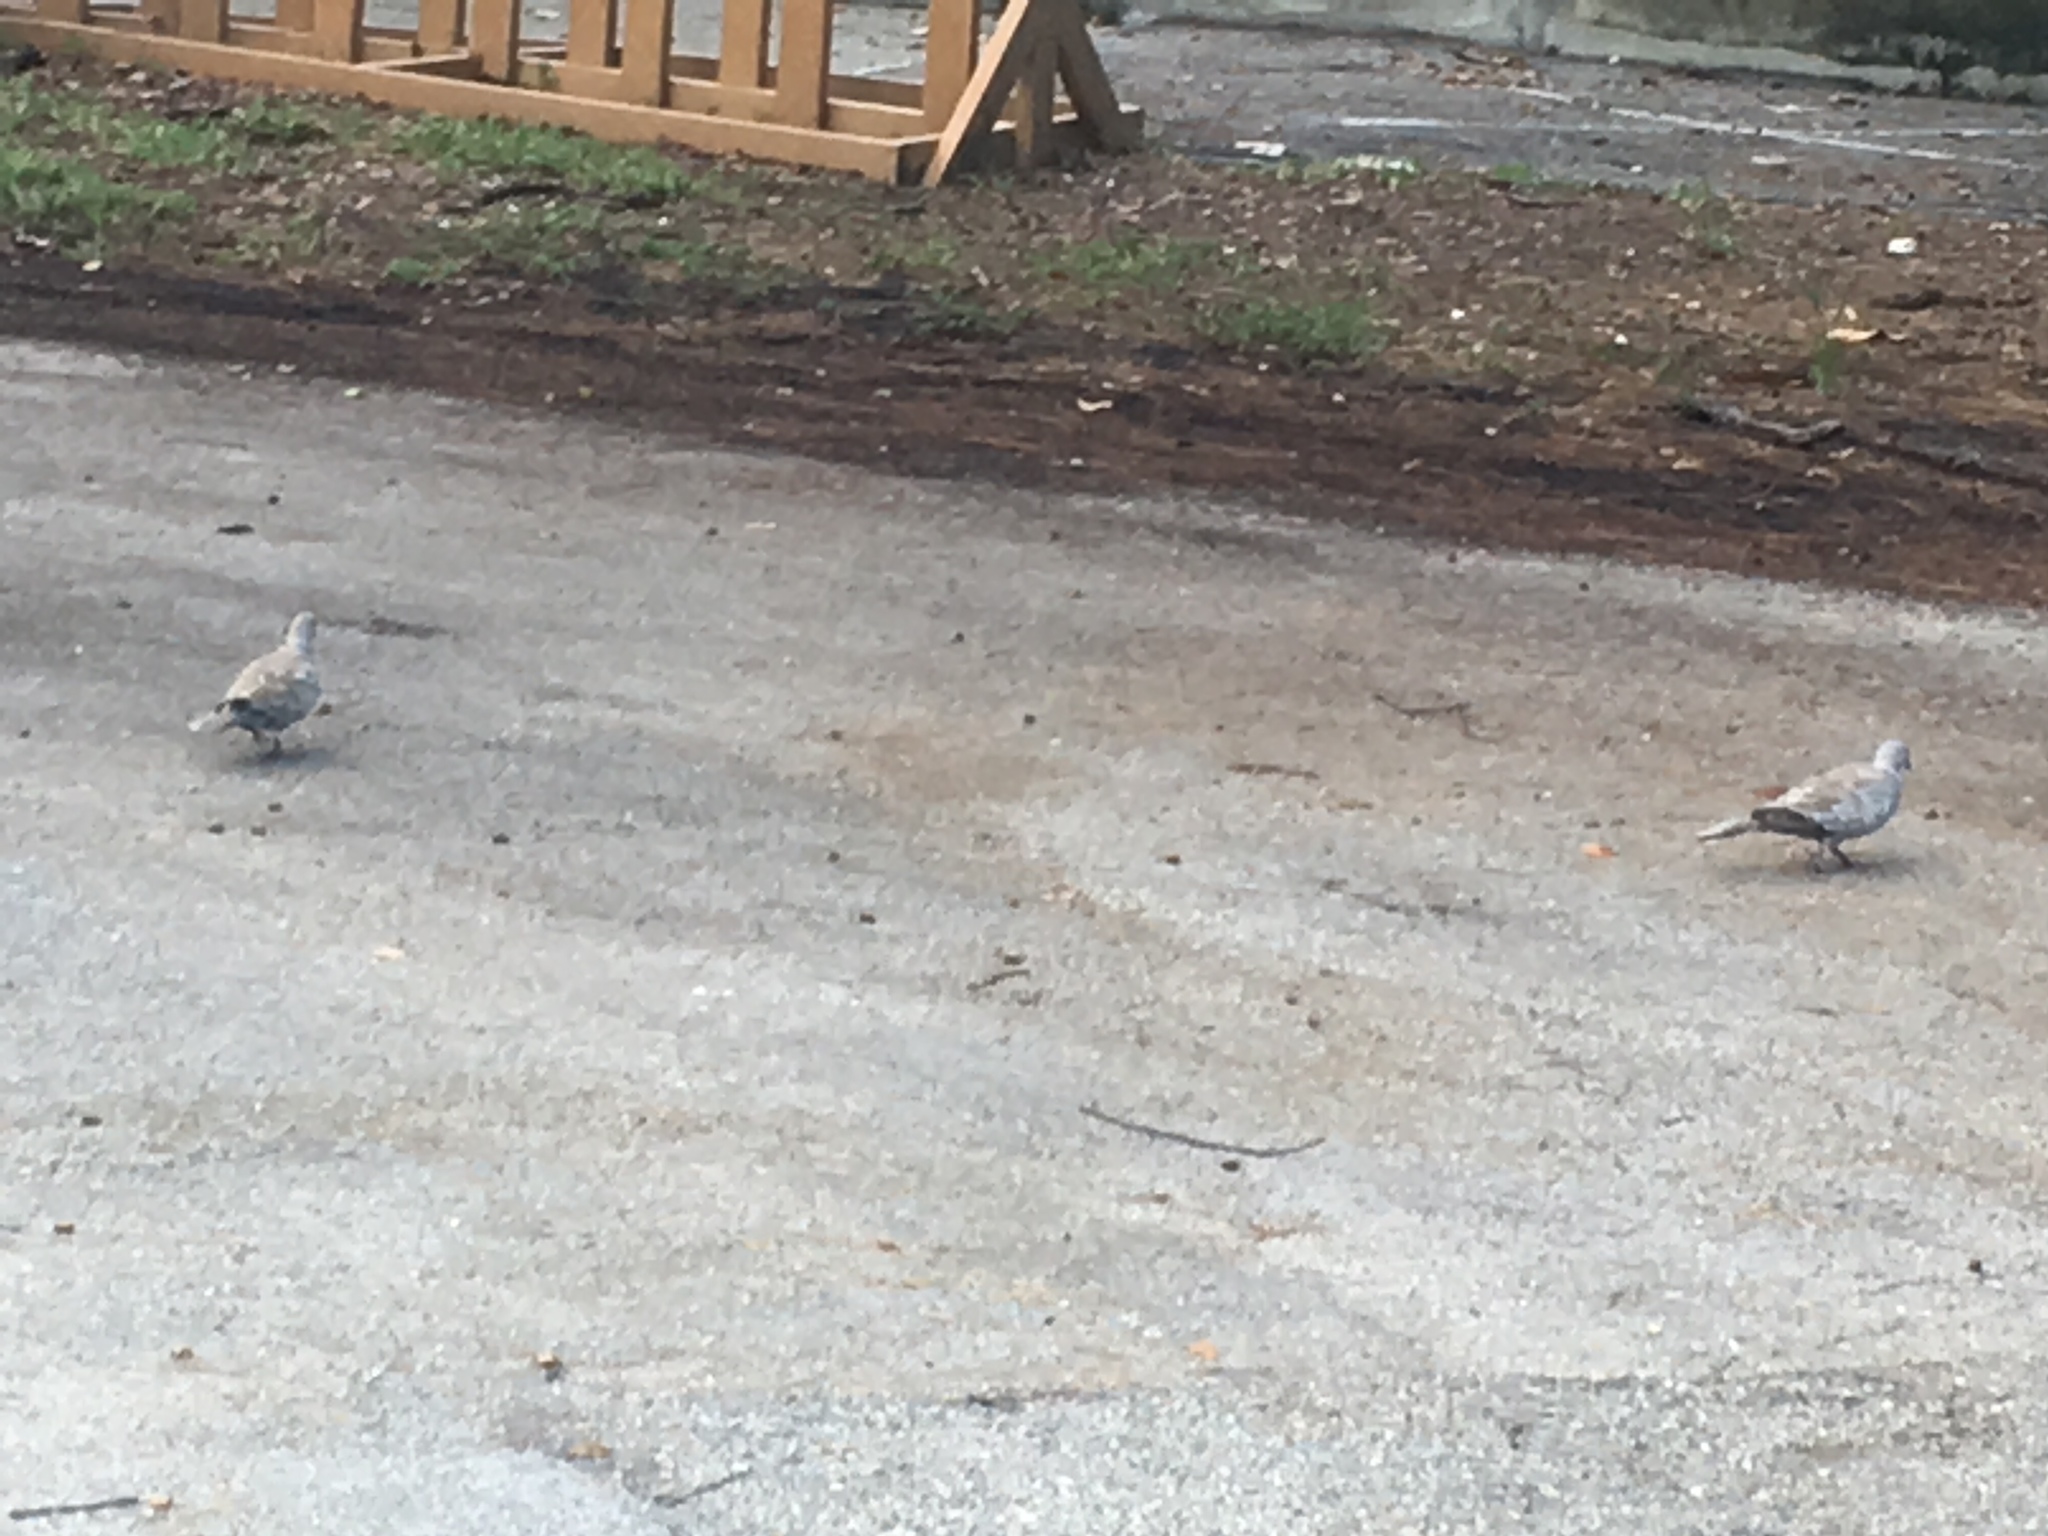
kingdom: Animalia
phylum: Chordata
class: Aves
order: Columbiformes
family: Columbidae
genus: Streptopelia
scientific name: Streptopelia decaocto
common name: Eurasian collared dove
